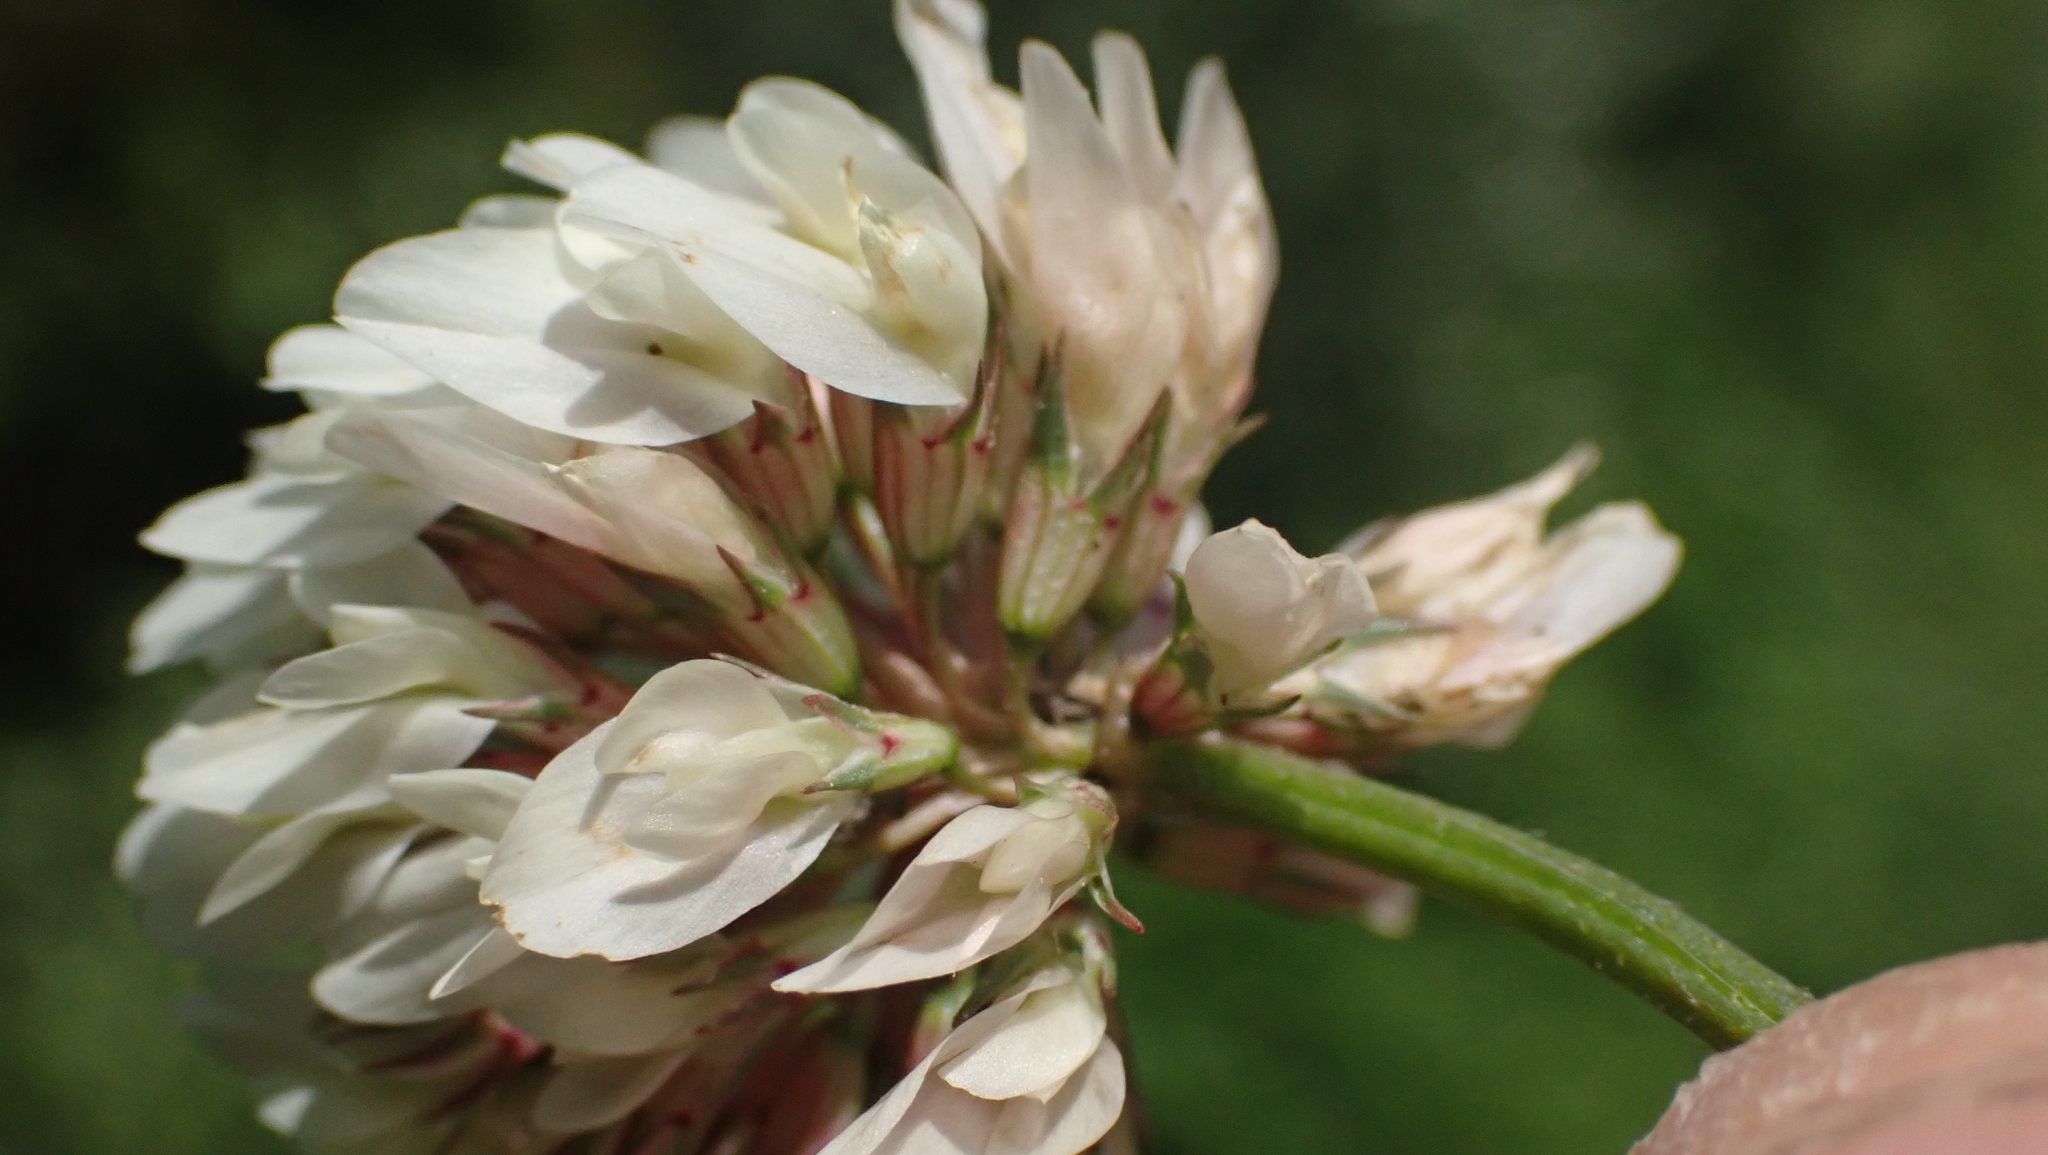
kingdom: Plantae
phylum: Tracheophyta
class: Magnoliopsida
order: Fabales
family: Fabaceae
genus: Trifolium
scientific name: Trifolium repens
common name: White clover
